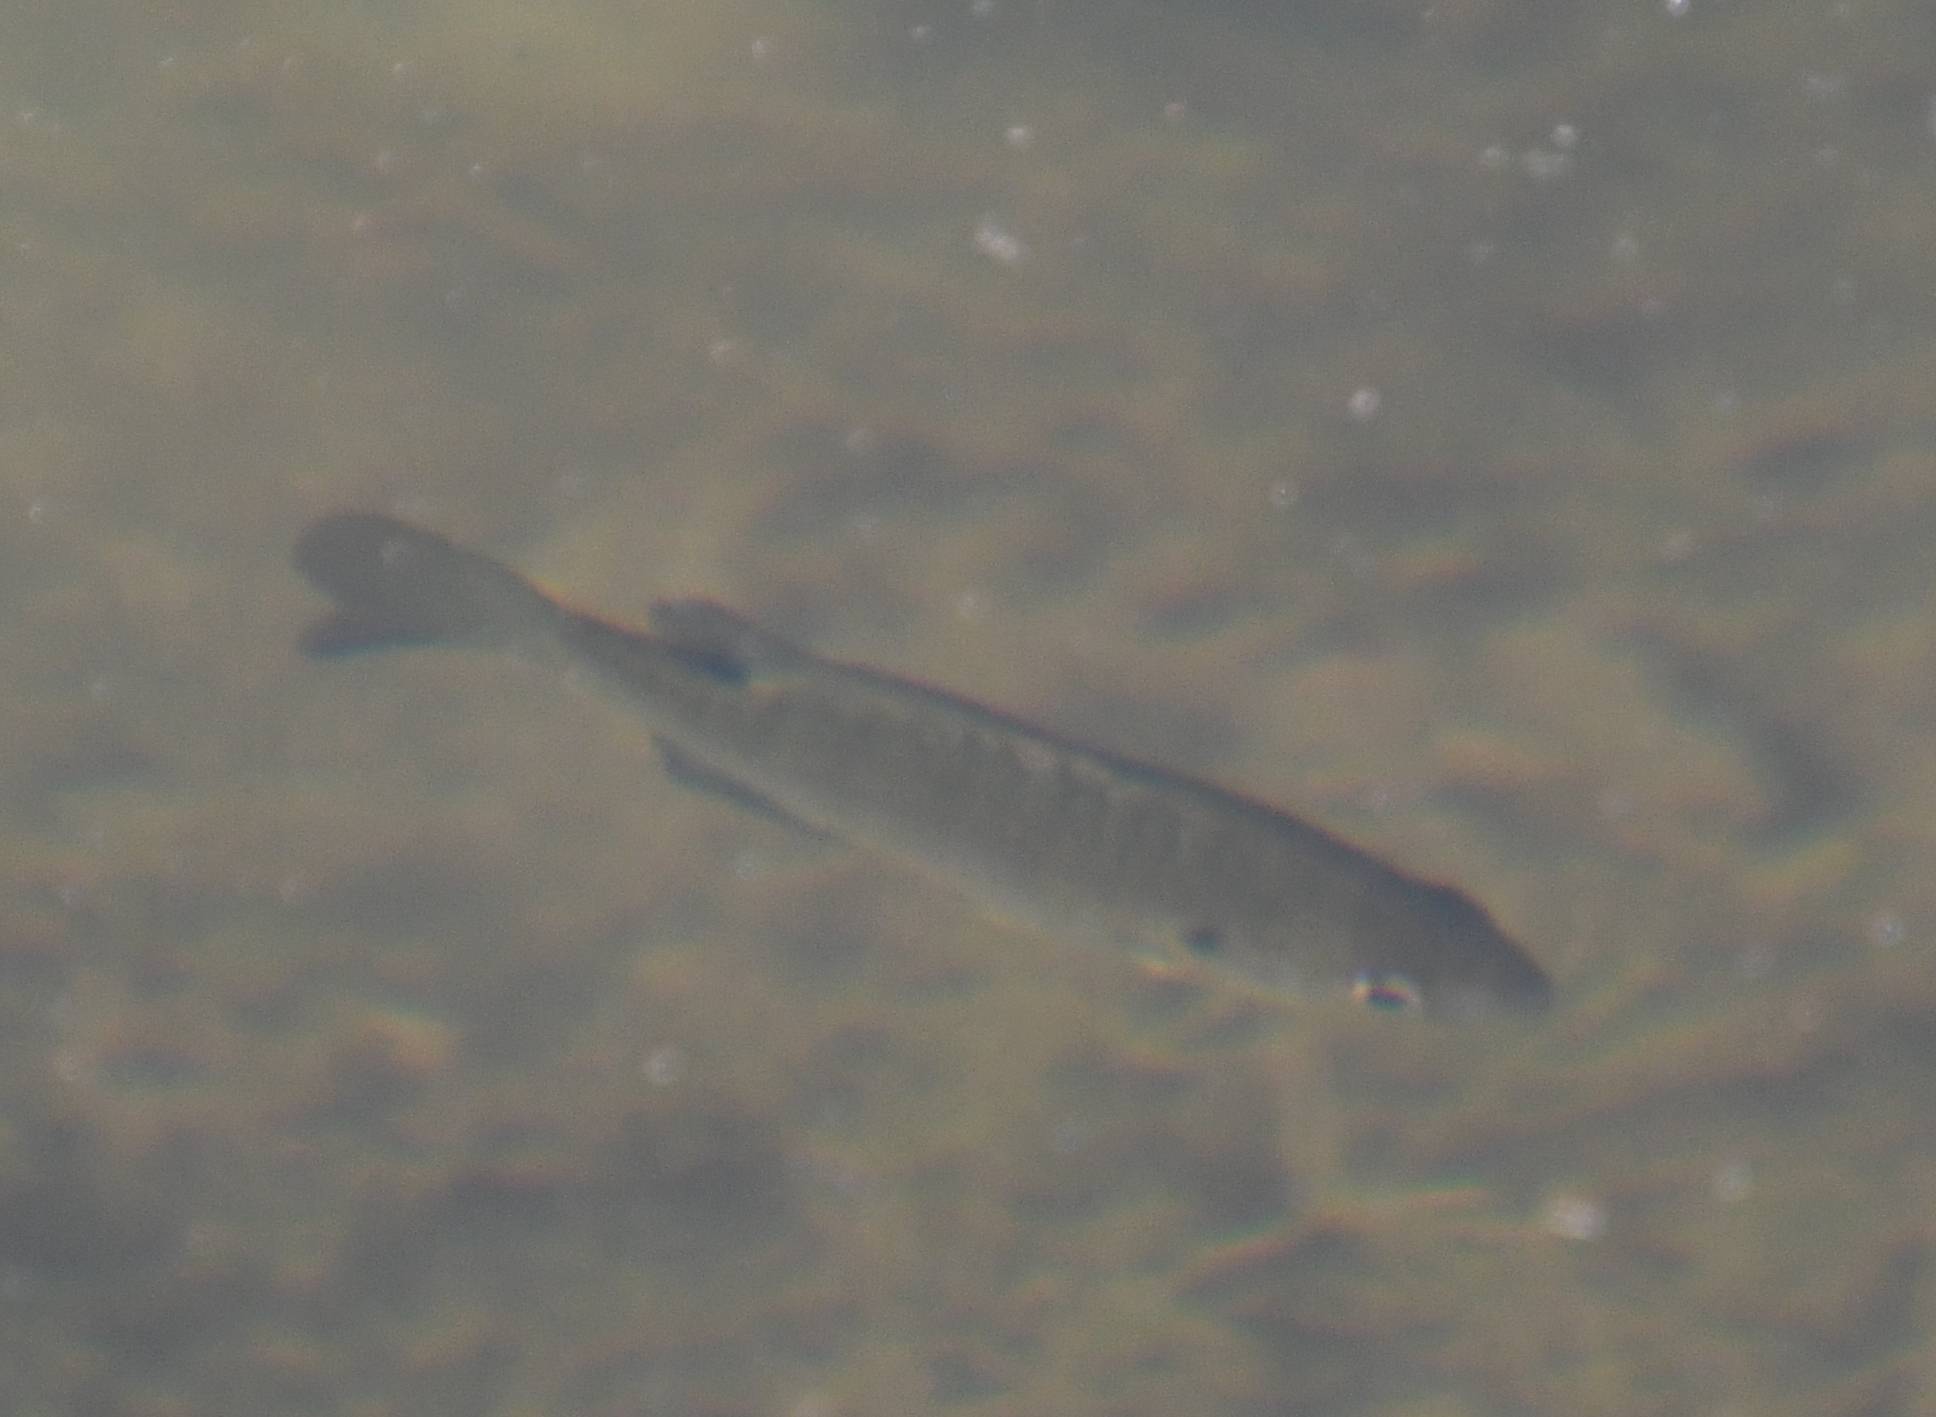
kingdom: Animalia
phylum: Chordata
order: Perciformes
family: Centrarchidae
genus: Lepomis
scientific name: Lepomis macrochirus
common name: Bluegill
